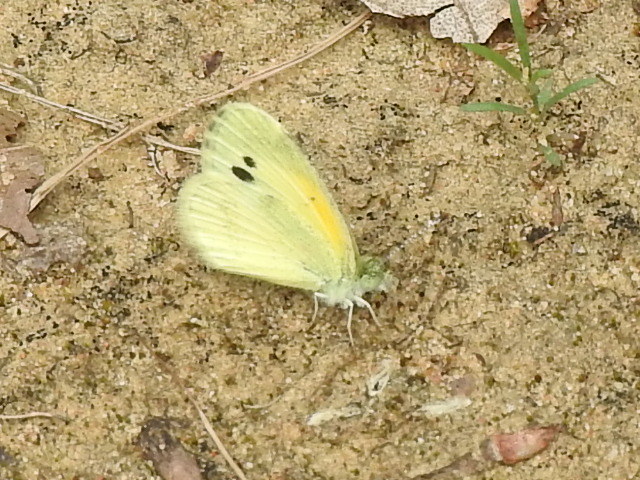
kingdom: Animalia
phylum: Arthropoda
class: Insecta
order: Lepidoptera
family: Pieridae
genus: Nathalis
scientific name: Nathalis iole
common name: Dainty sulphur
